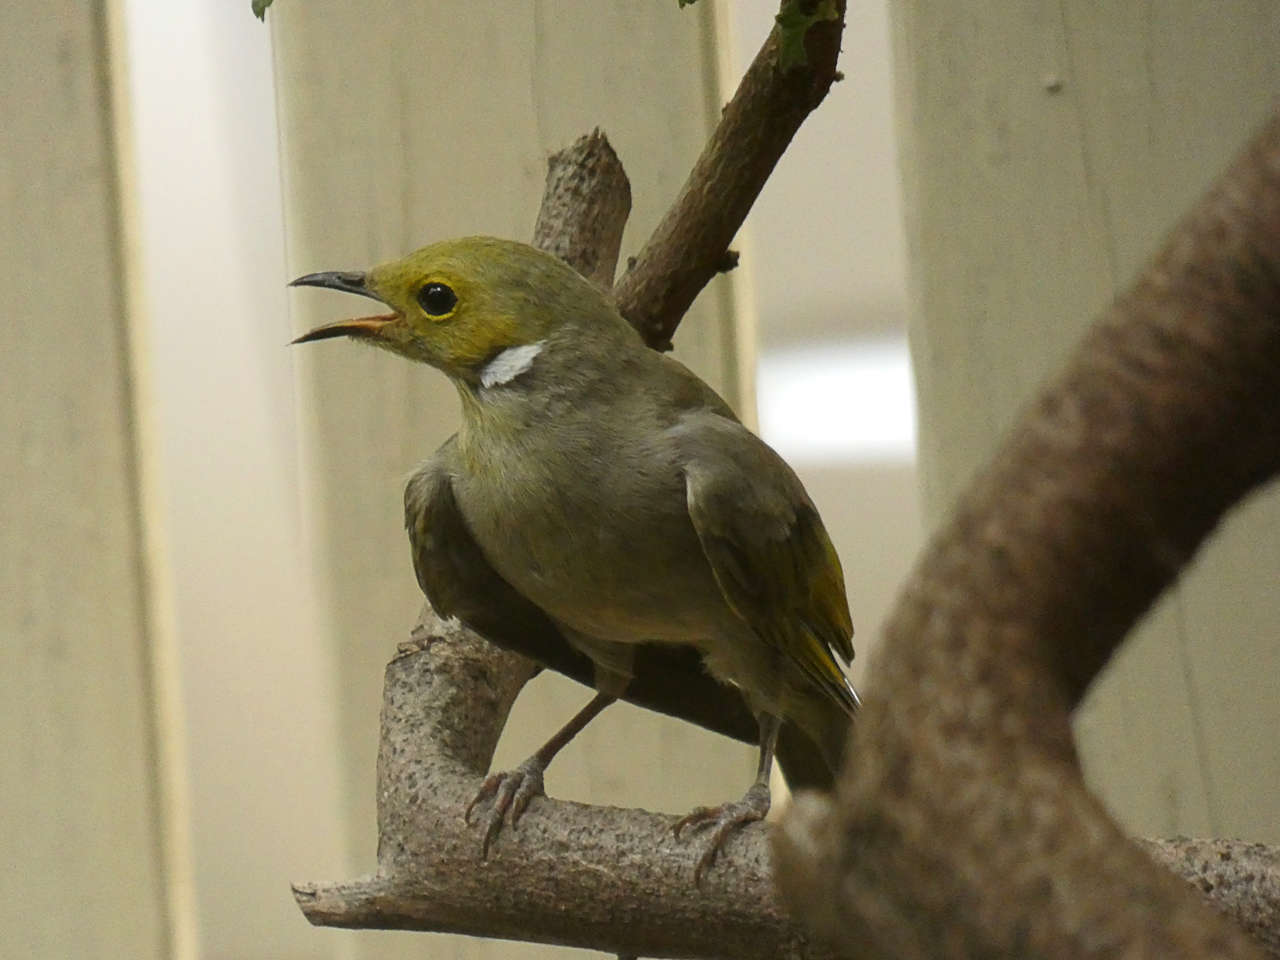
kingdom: Animalia
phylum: Chordata
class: Aves
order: Passeriformes
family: Meliphagidae
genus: Ptilotula
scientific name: Ptilotula penicillata
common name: White-plumed honeyeater
